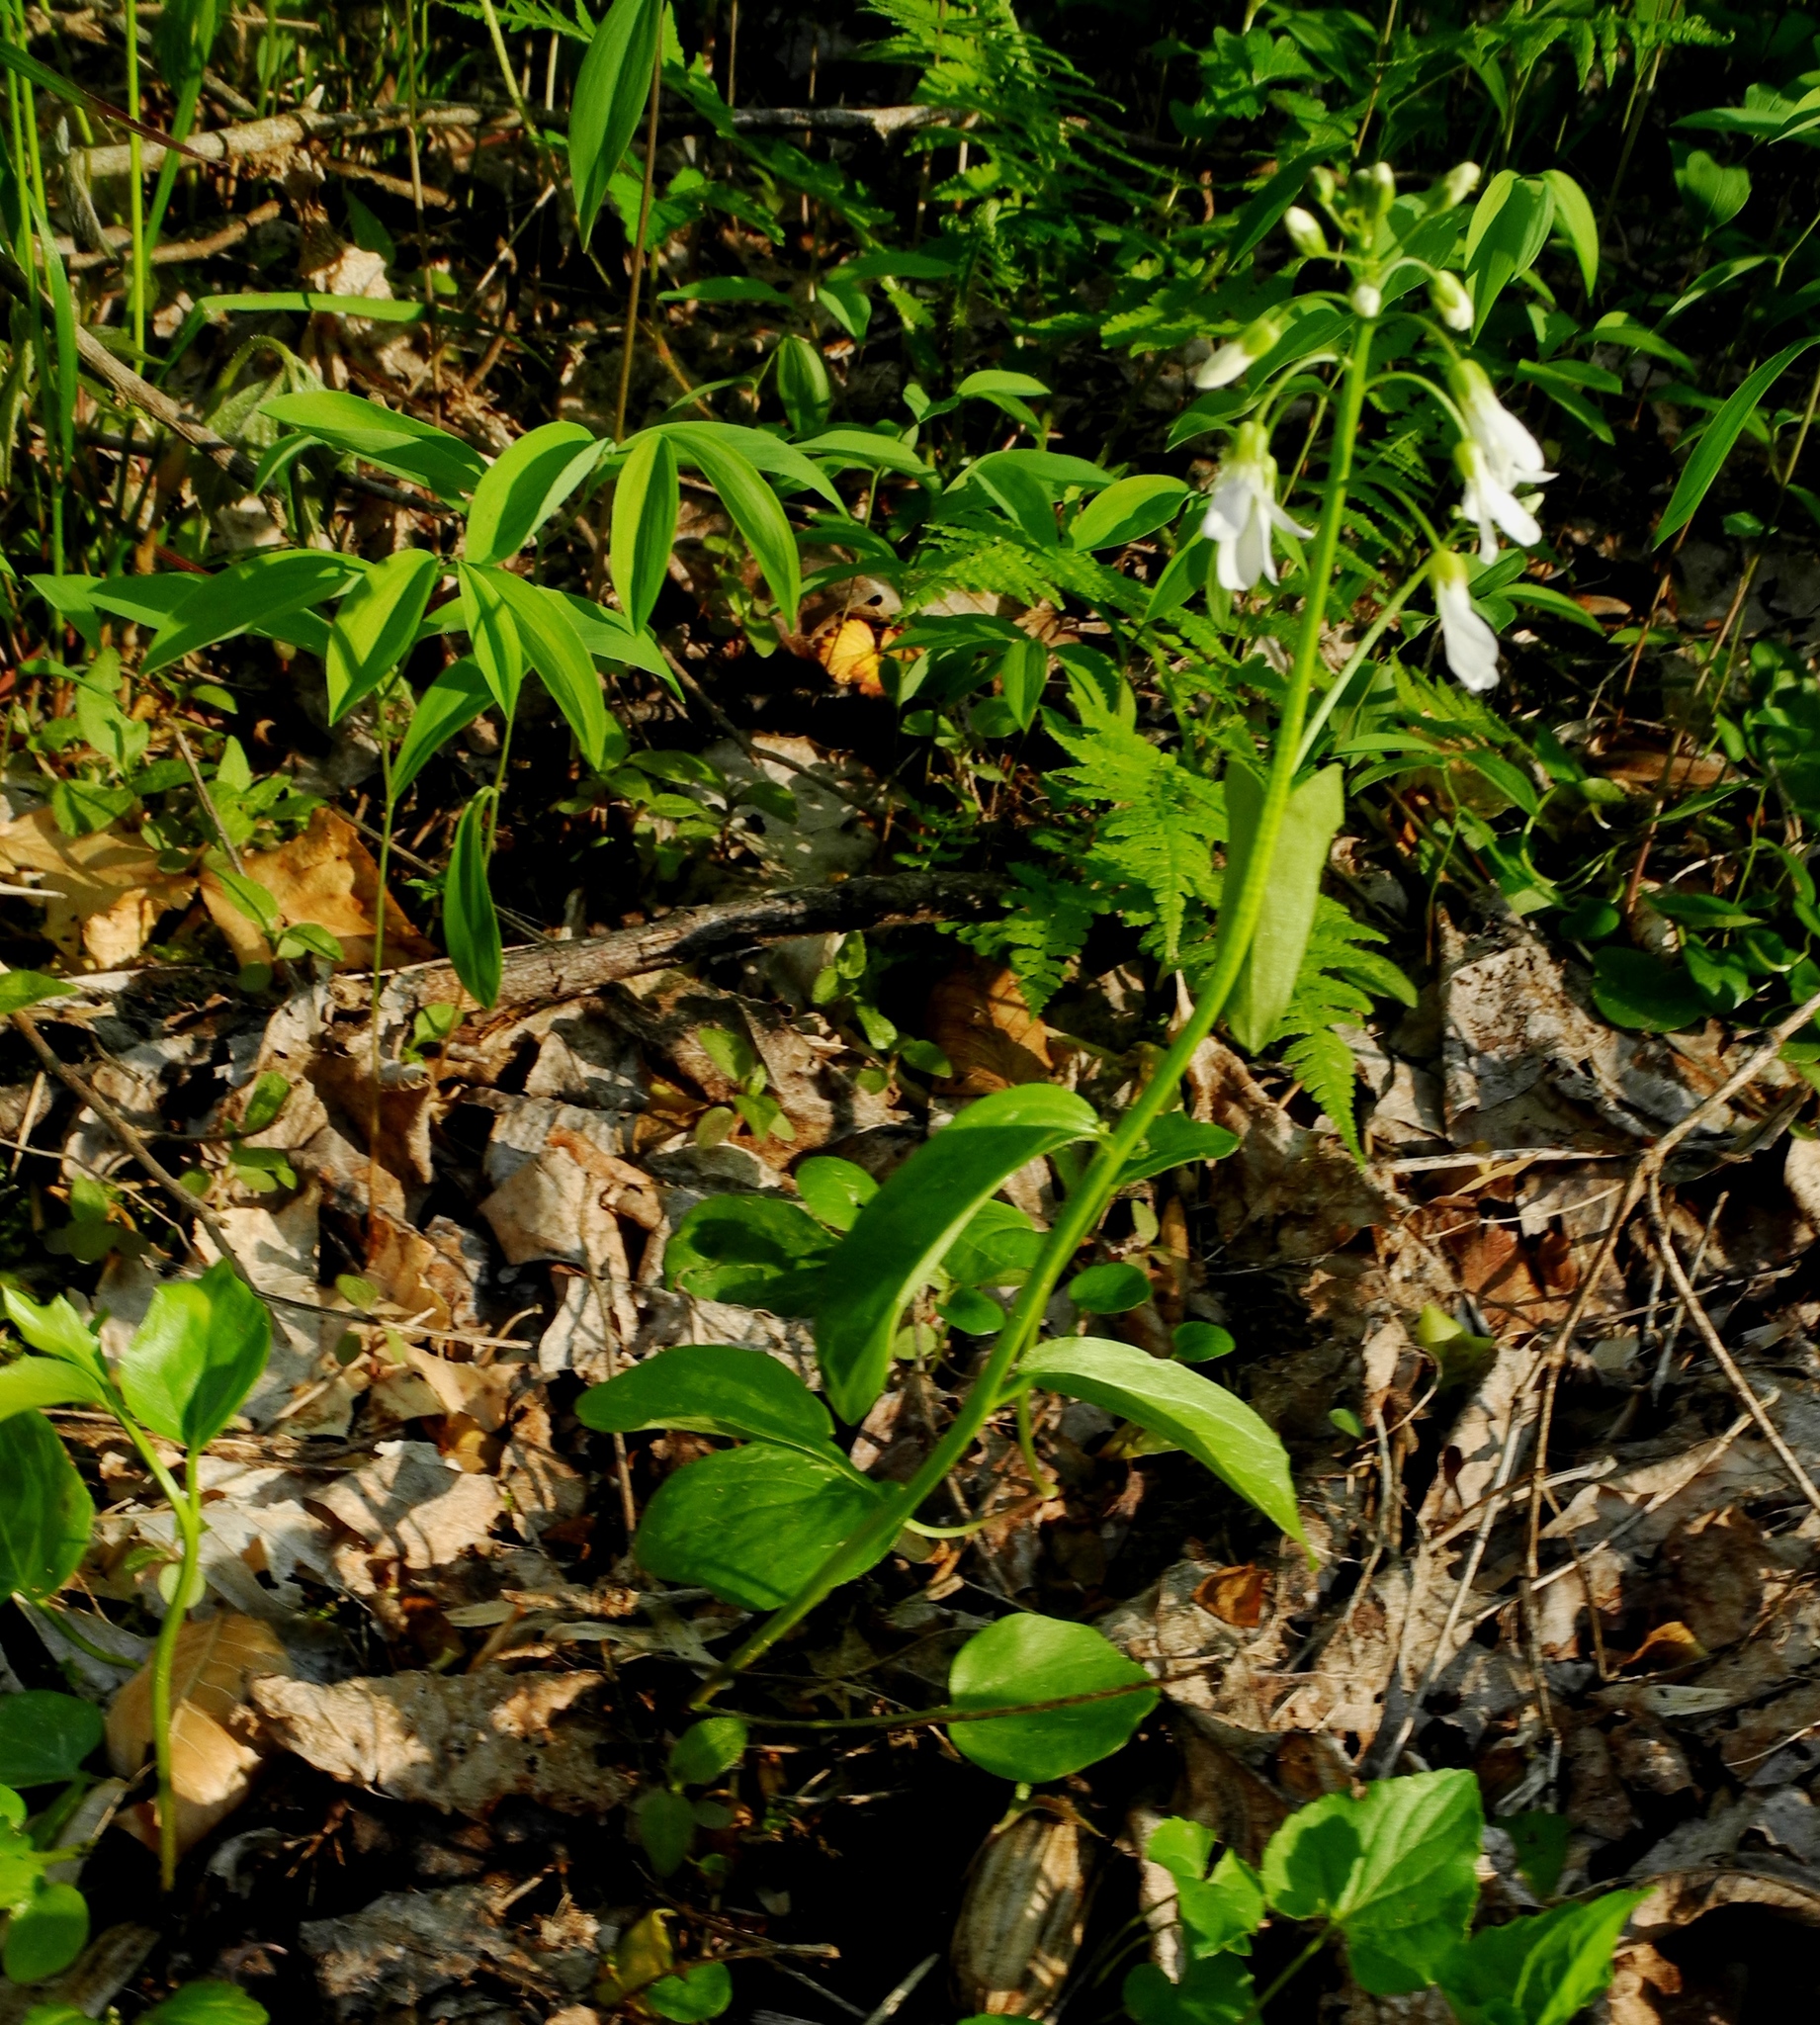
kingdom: Plantae
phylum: Tracheophyta
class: Magnoliopsida
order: Brassicales
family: Brassicaceae
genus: Cardamine
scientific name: Cardamine bulbosa
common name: Spring cress
